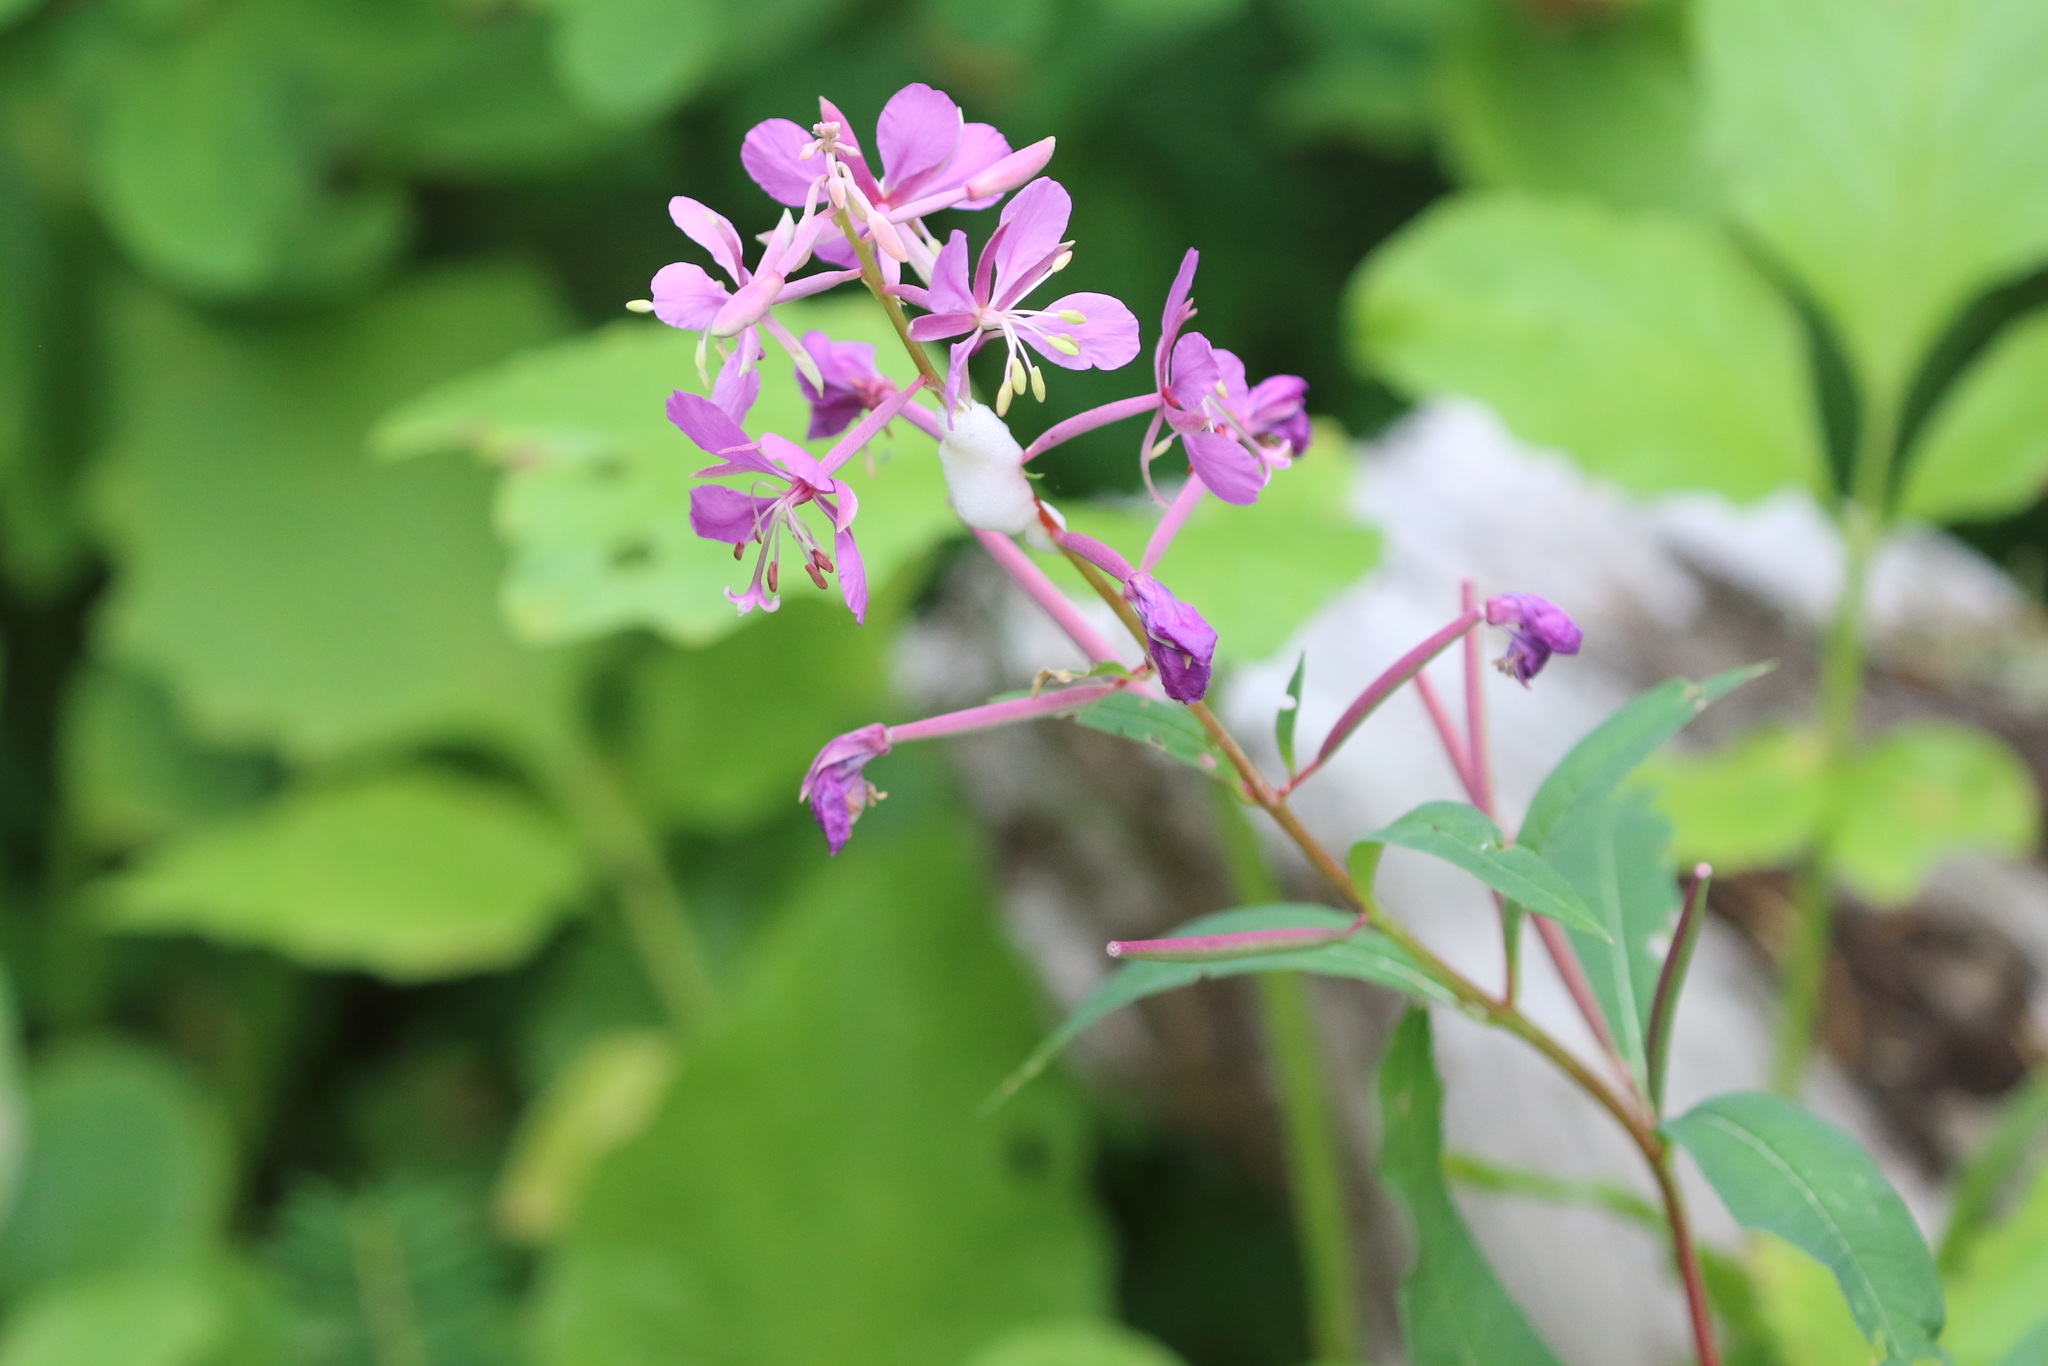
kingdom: Plantae
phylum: Tracheophyta
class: Magnoliopsida
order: Myrtales
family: Onagraceae
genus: Chamaenerion
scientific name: Chamaenerion angustifolium
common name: Fireweed
